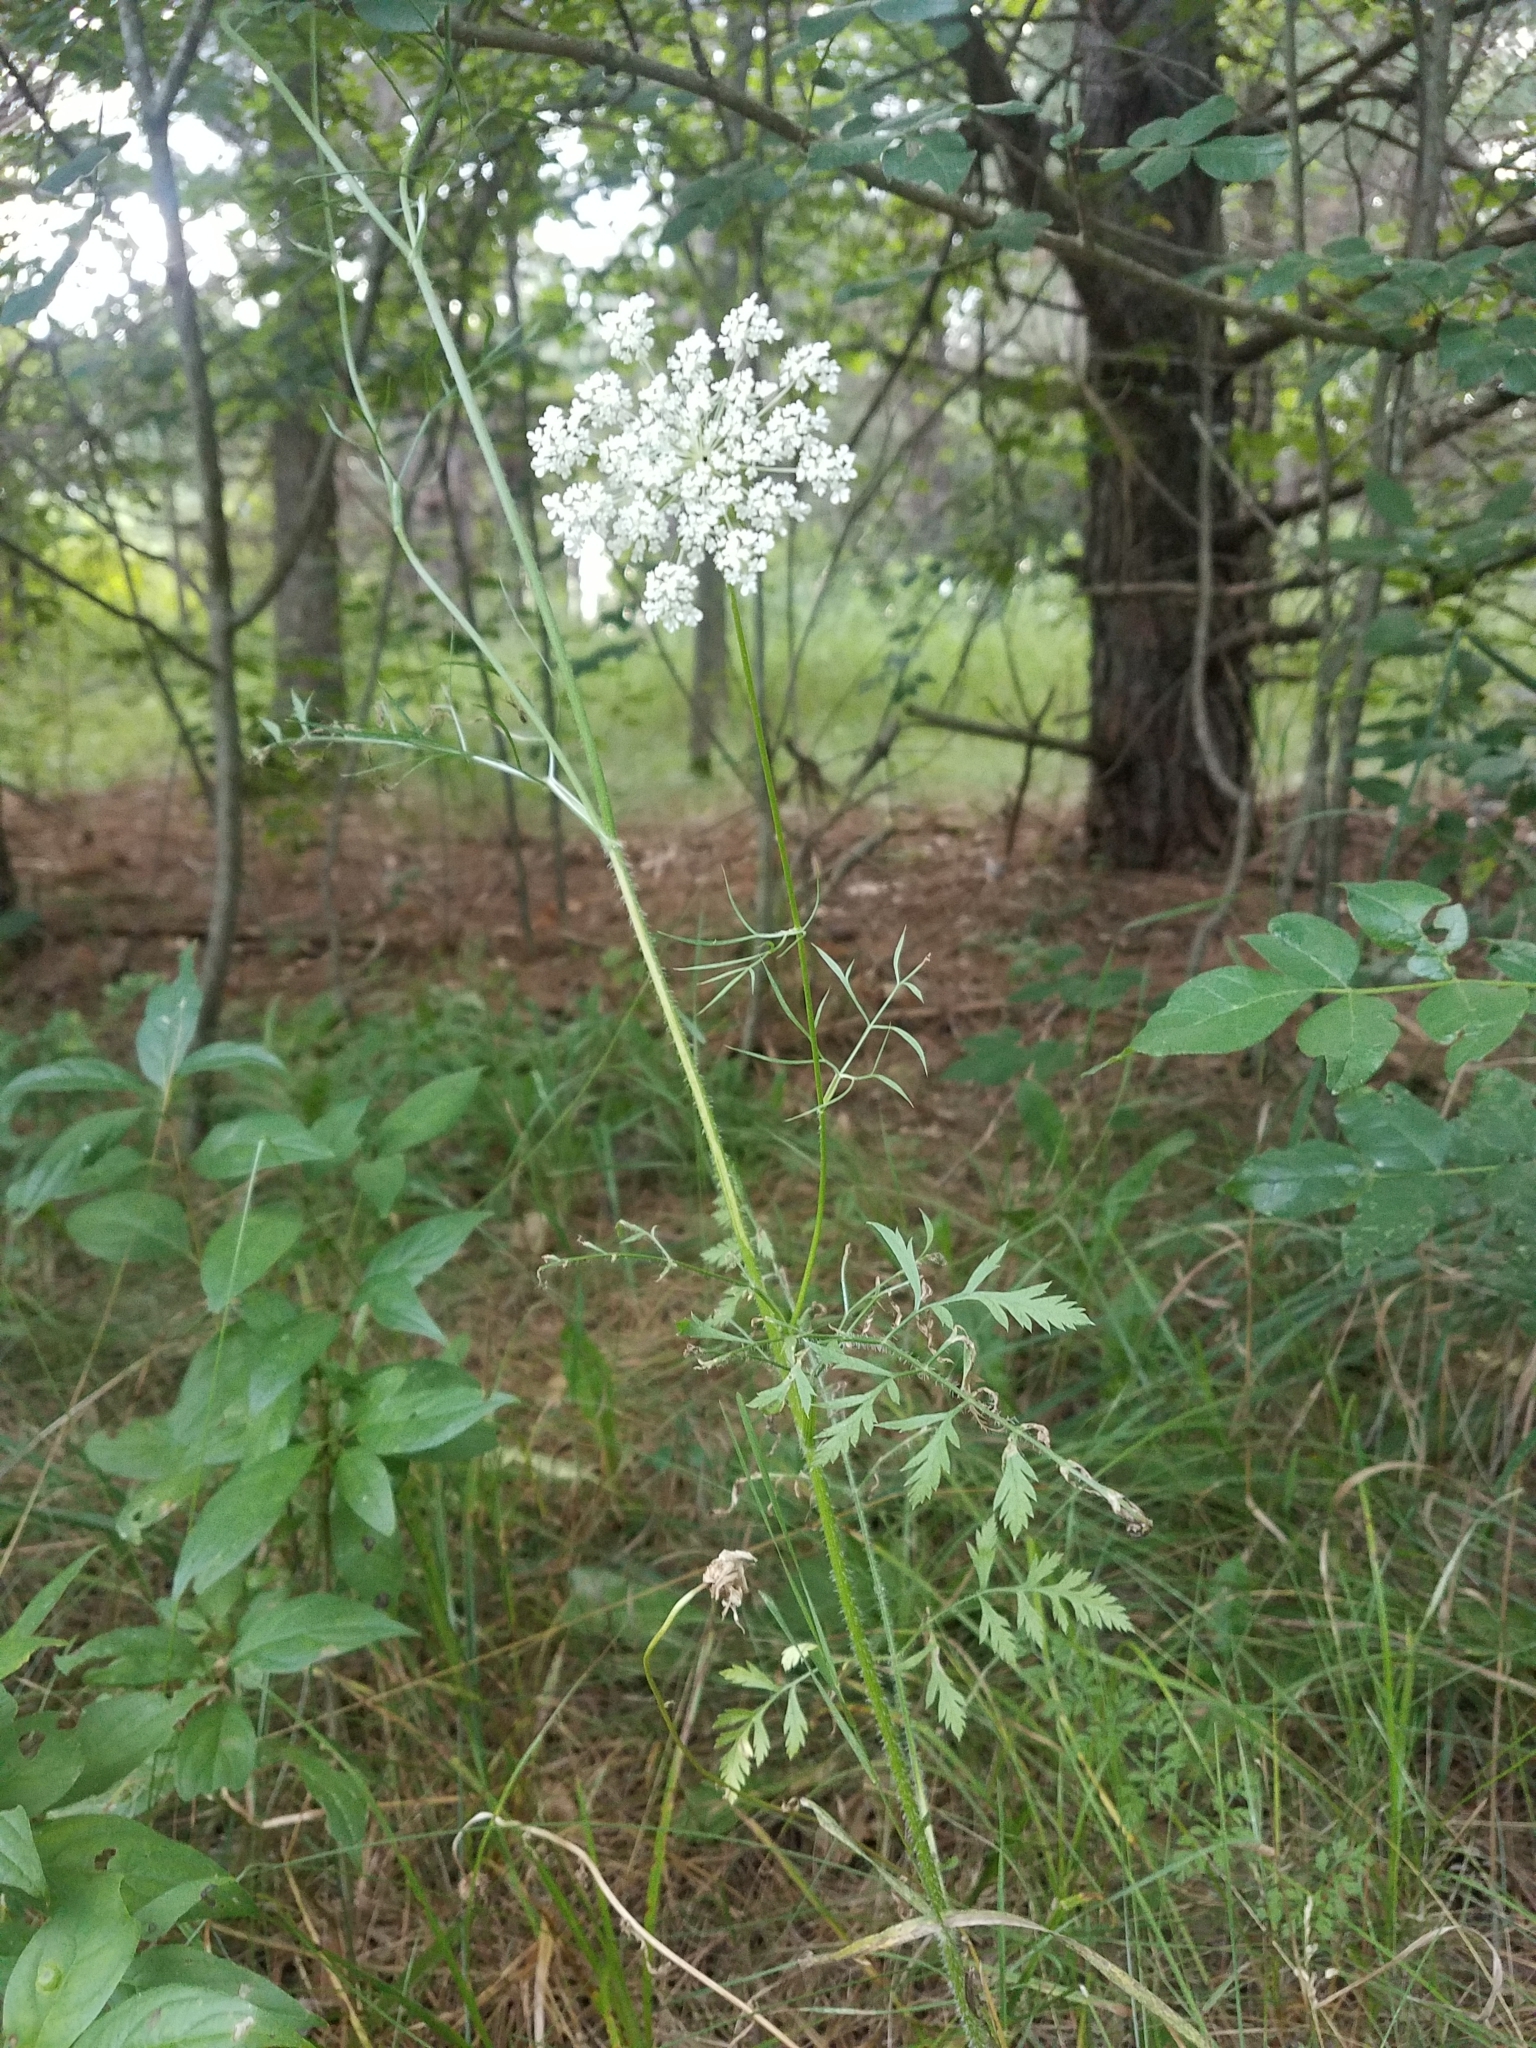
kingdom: Plantae
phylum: Tracheophyta
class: Magnoliopsida
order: Apiales
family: Apiaceae
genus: Daucus
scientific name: Daucus carota
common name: Wild carrot
